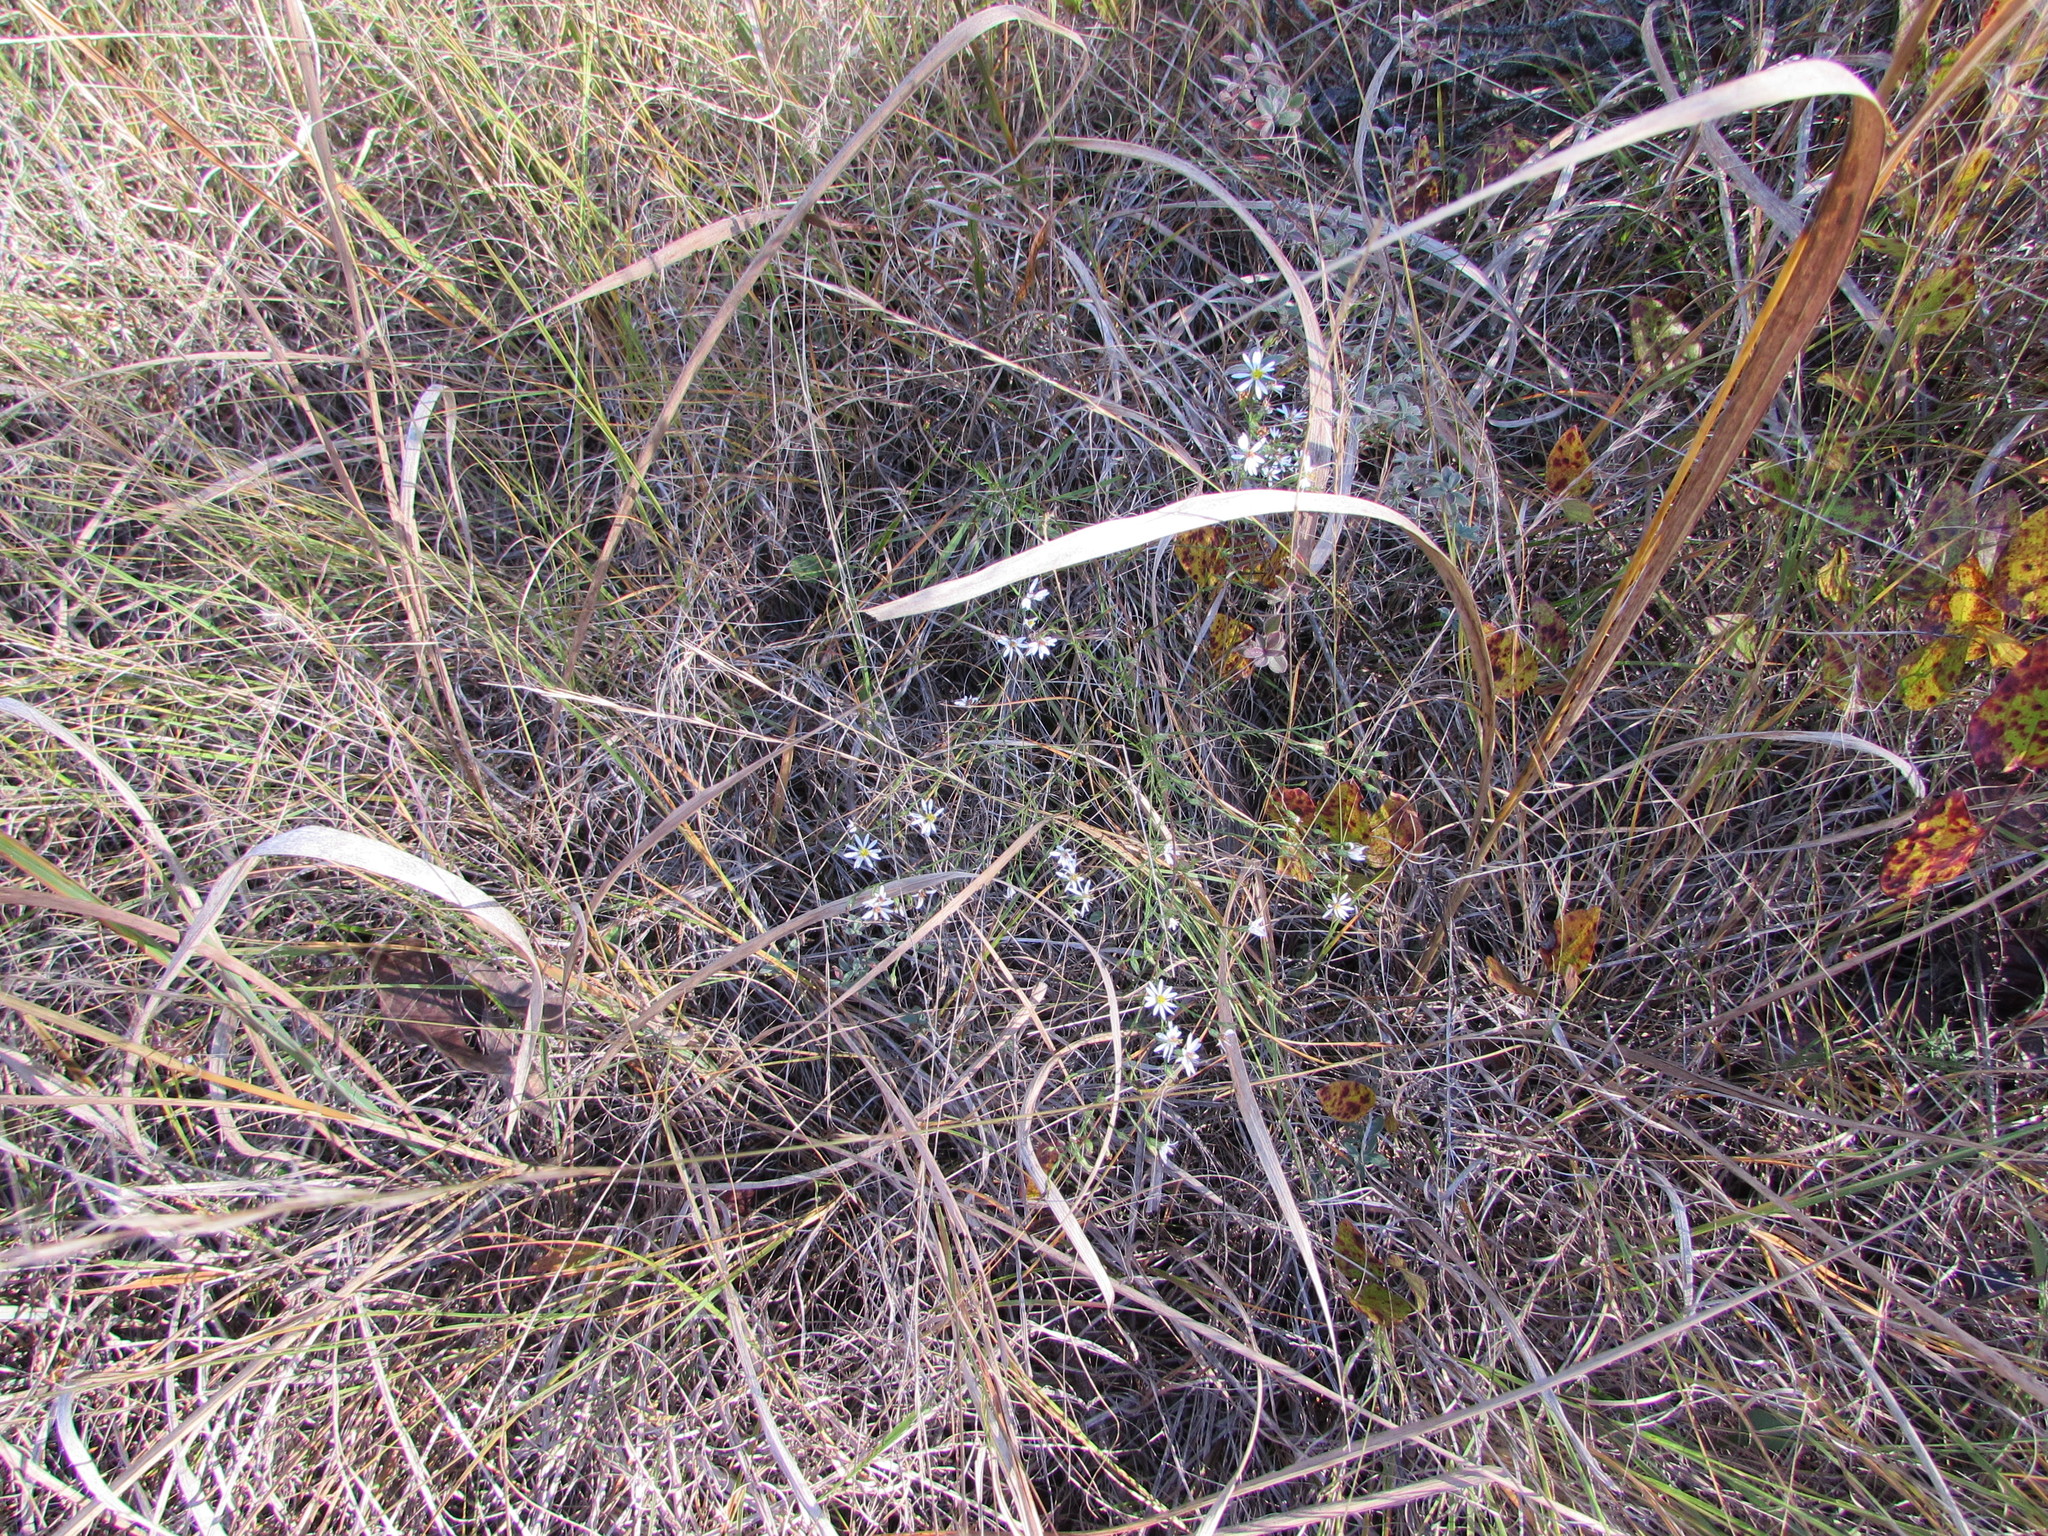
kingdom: Plantae
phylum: Tracheophyta
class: Magnoliopsida
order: Asterales
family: Asteraceae
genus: Symphyotrichum
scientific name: Symphyotrichum depauperatum
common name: Serpentine aster
